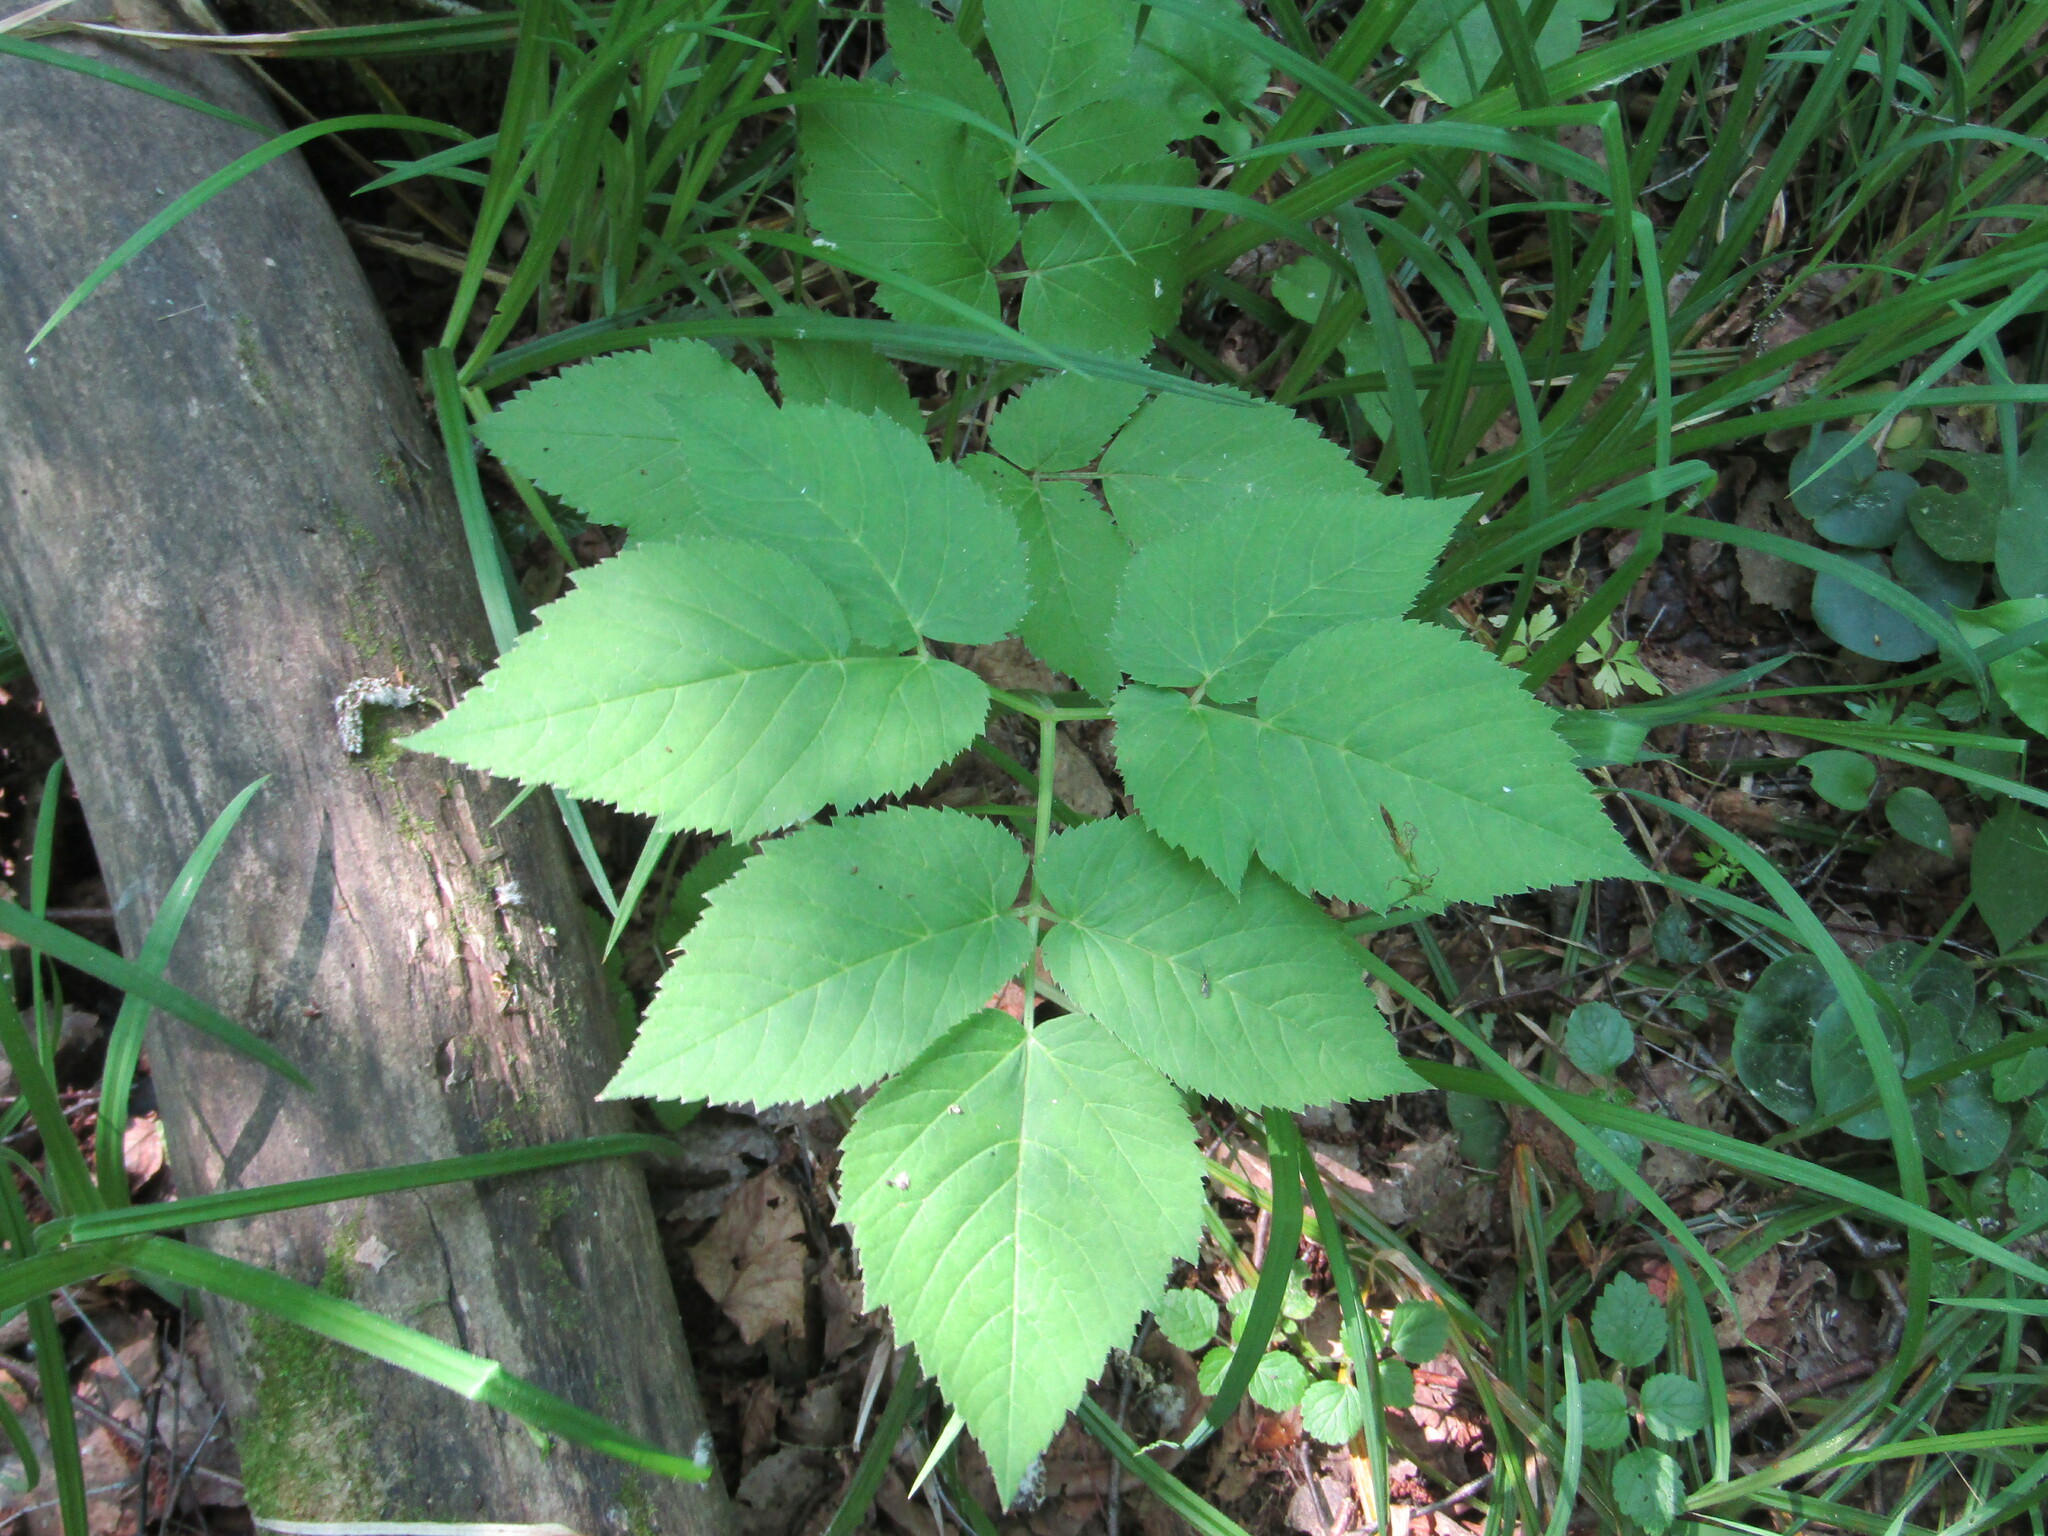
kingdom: Plantae
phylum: Tracheophyta
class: Magnoliopsida
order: Apiales
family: Apiaceae
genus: Aegopodium
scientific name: Aegopodium podagraria
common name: Ground-elder
